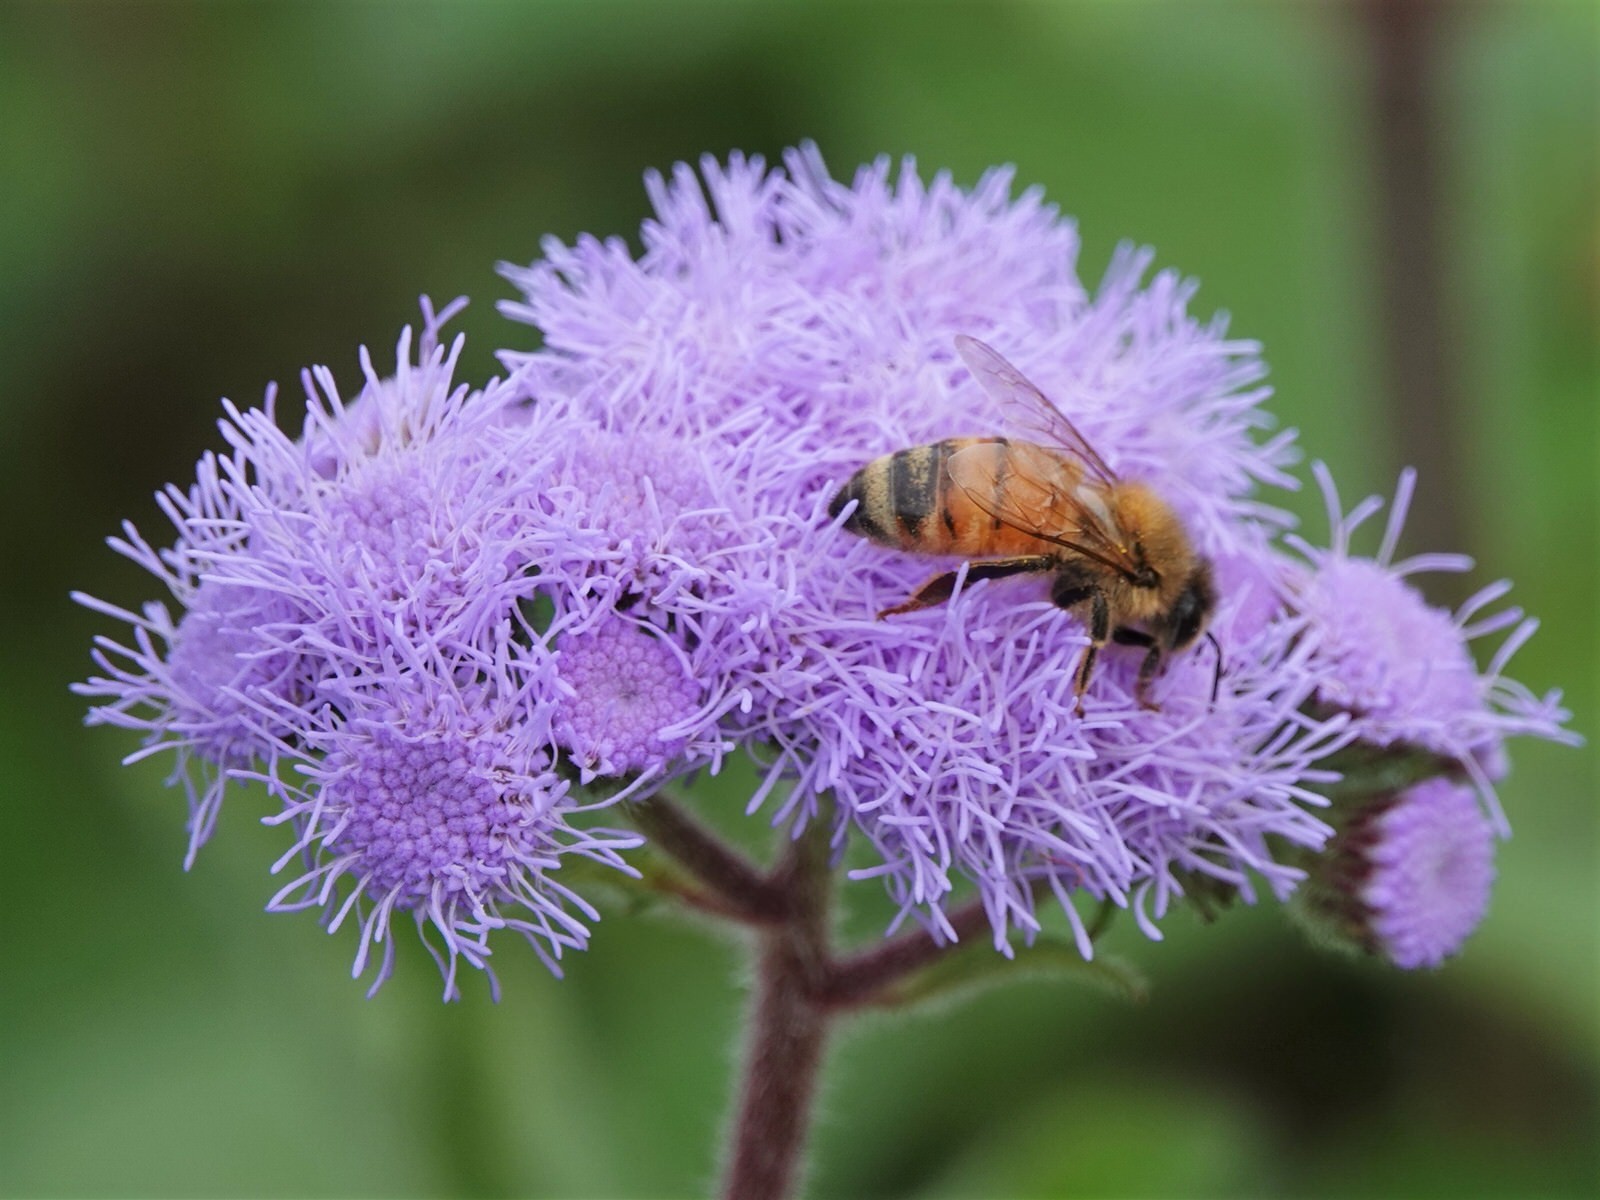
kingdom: Animalia
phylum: Arthropoda
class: Insecta
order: Hymenoptera
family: Apidae
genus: Apis
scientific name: Apis mellifera
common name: Honey bee
